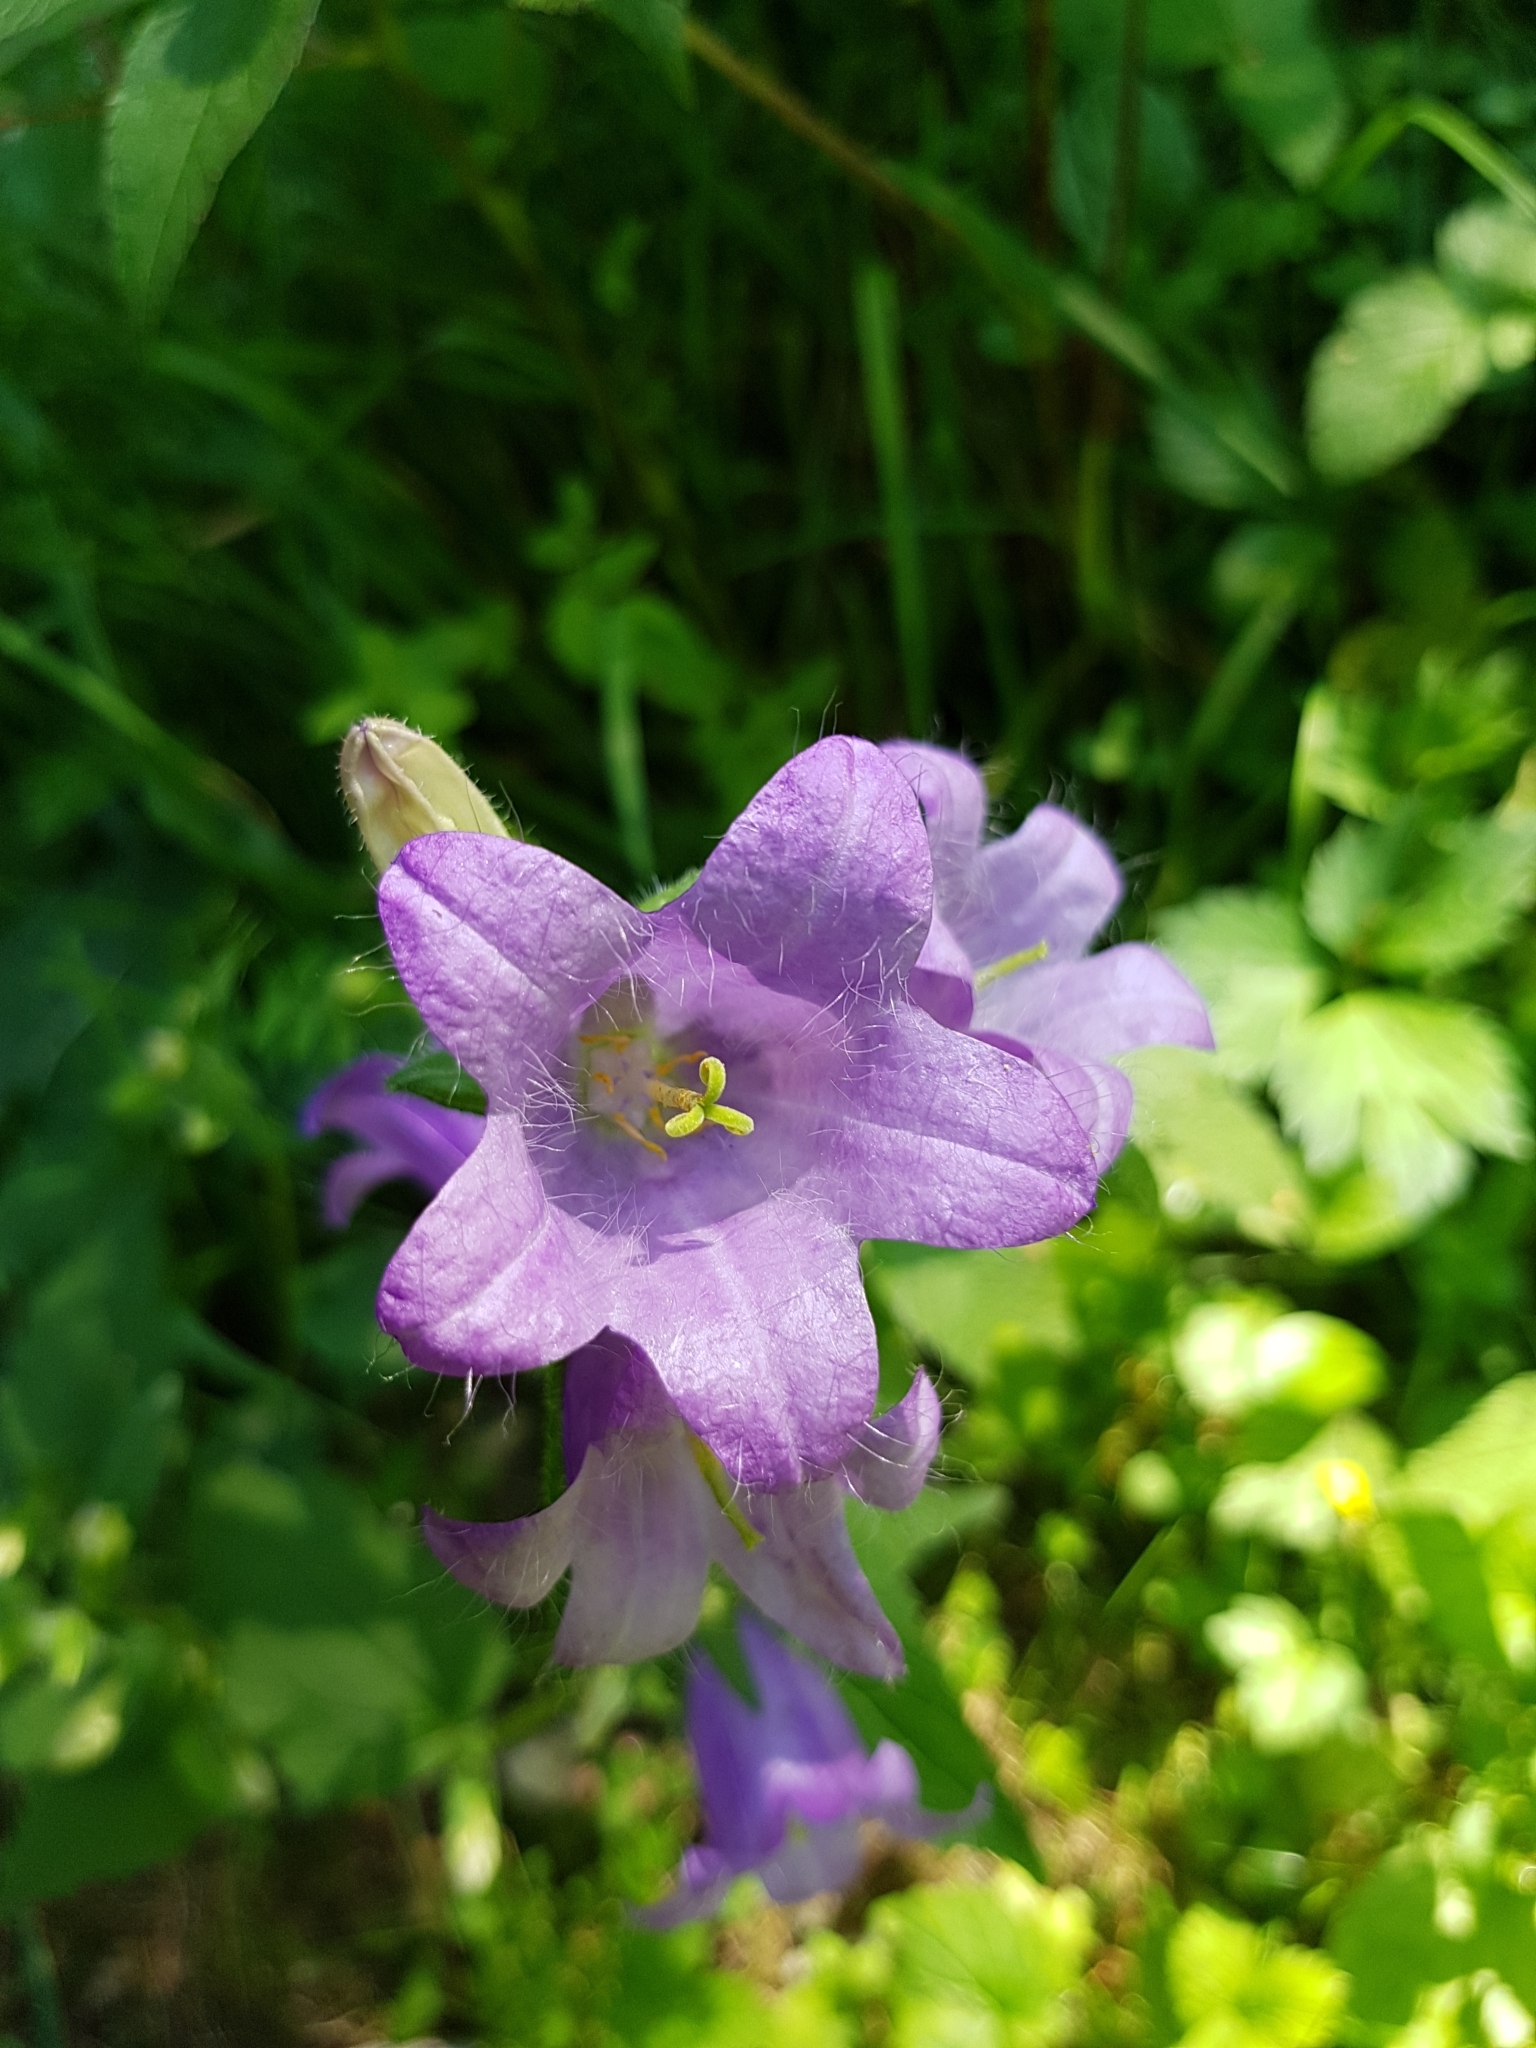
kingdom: Plantae
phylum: Tracheophyta
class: Magnoliopsida
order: Asterales
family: Campanulaceae
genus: Campanula
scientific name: Campanula trachelium
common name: Nettle-leaved bellflower
